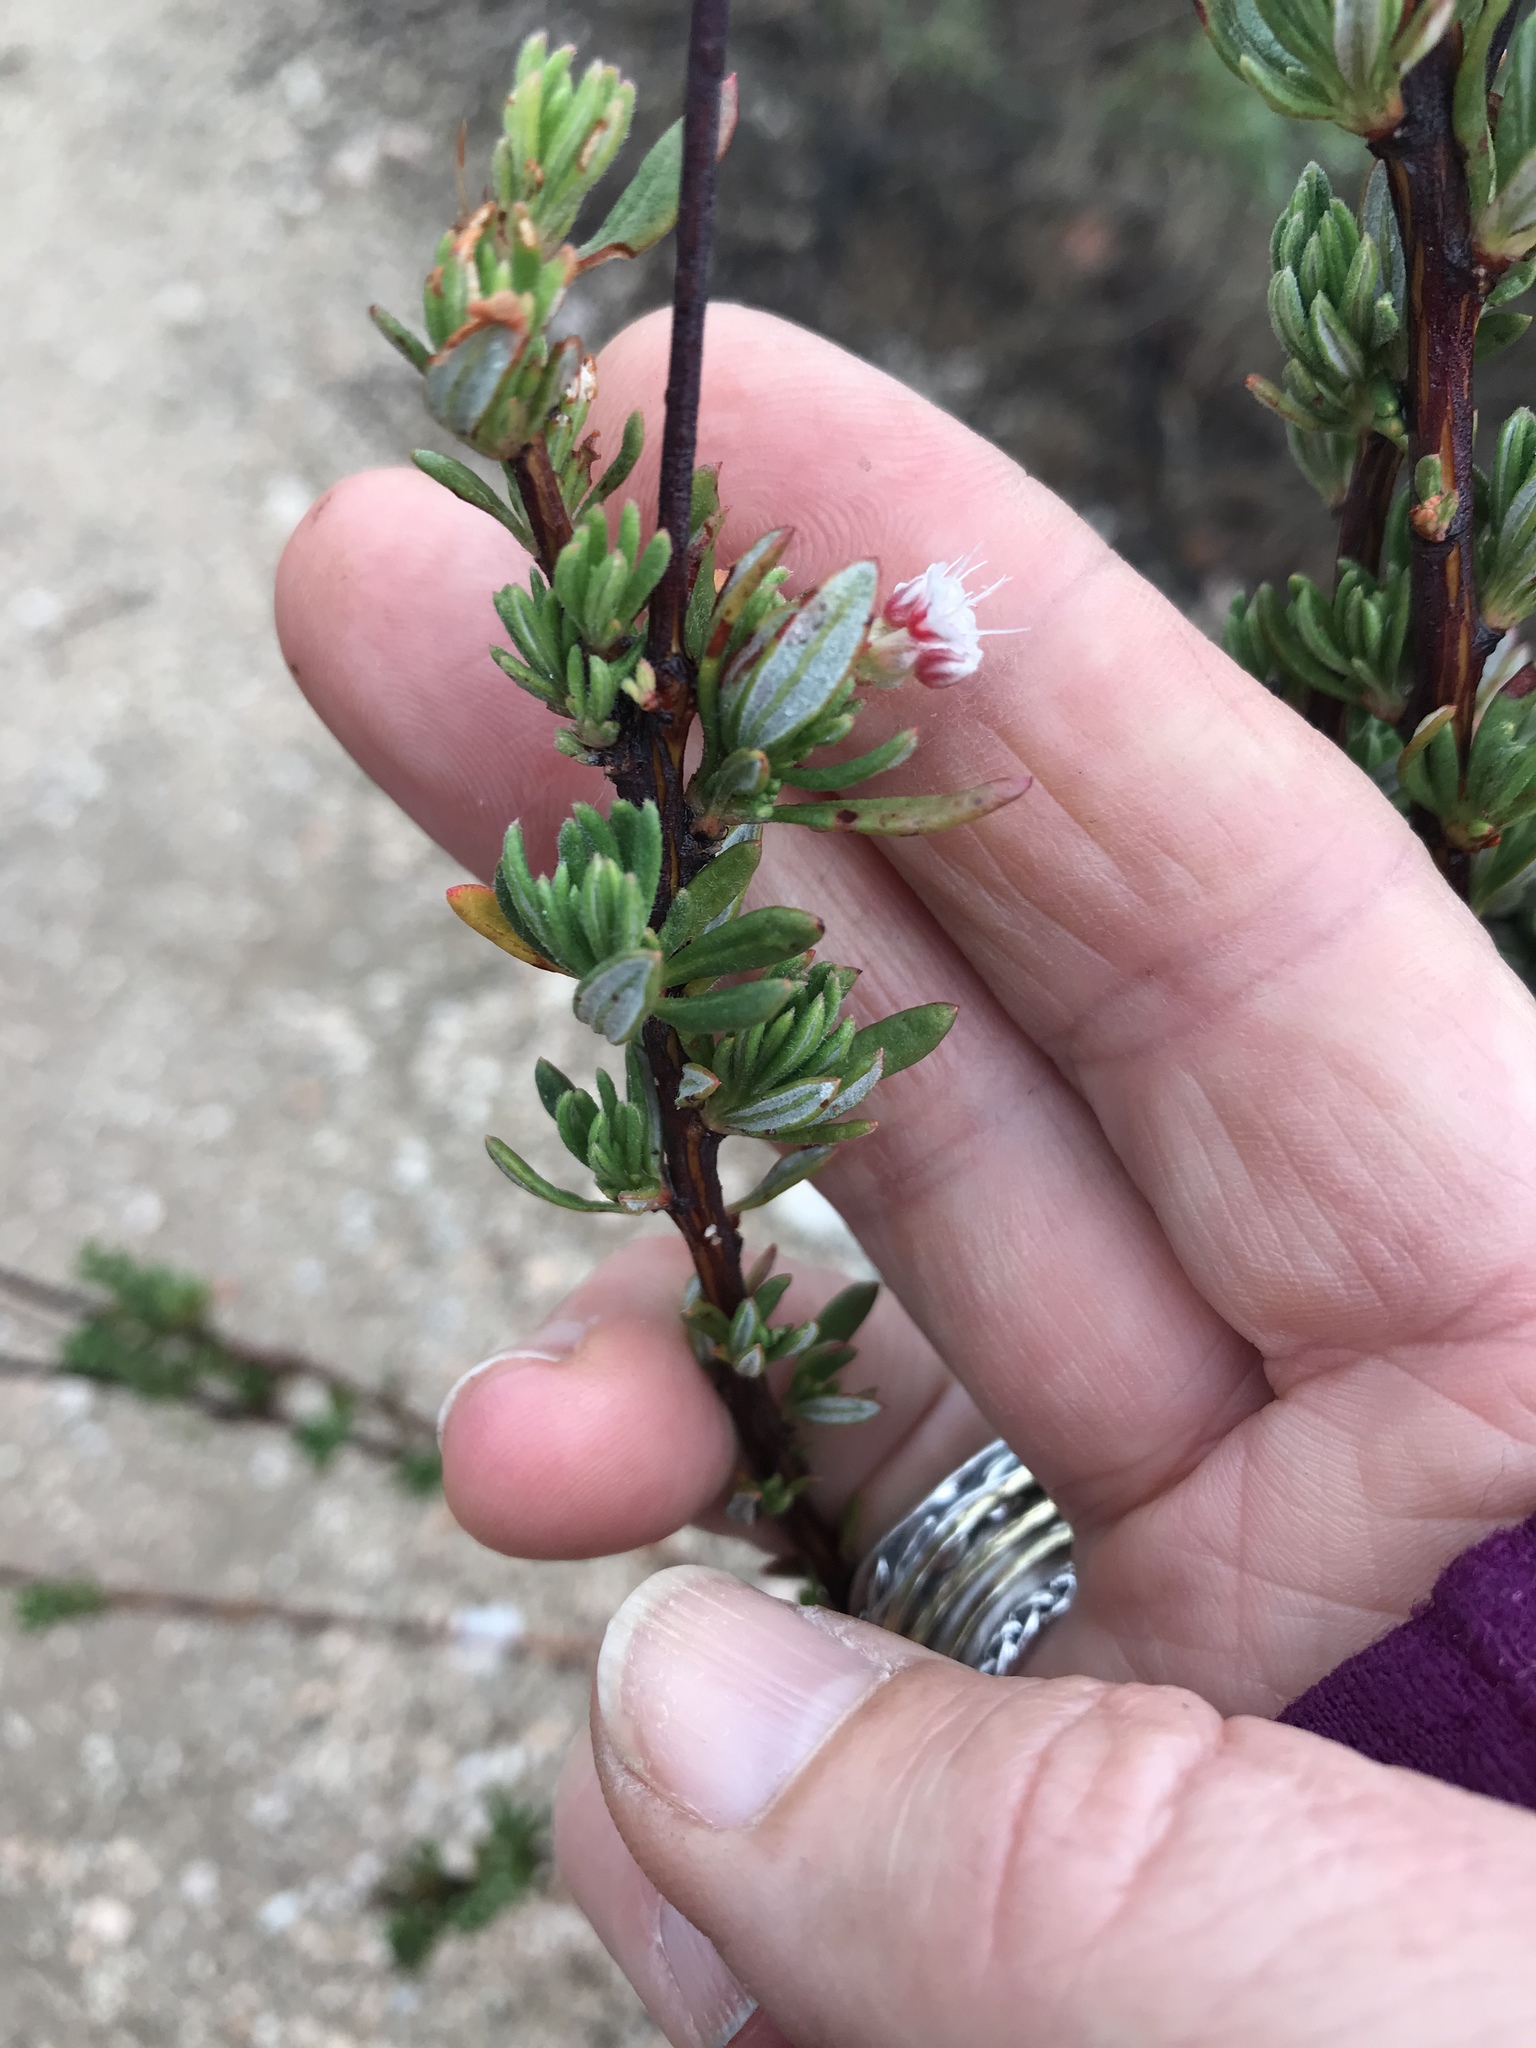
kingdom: Plantae
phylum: Tracheophyta
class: Magnoliopsida
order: Caryophyllales
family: Polygonaceae
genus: Eriogonum
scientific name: Eriogonum fasciculatum
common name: California wild buckwheat
